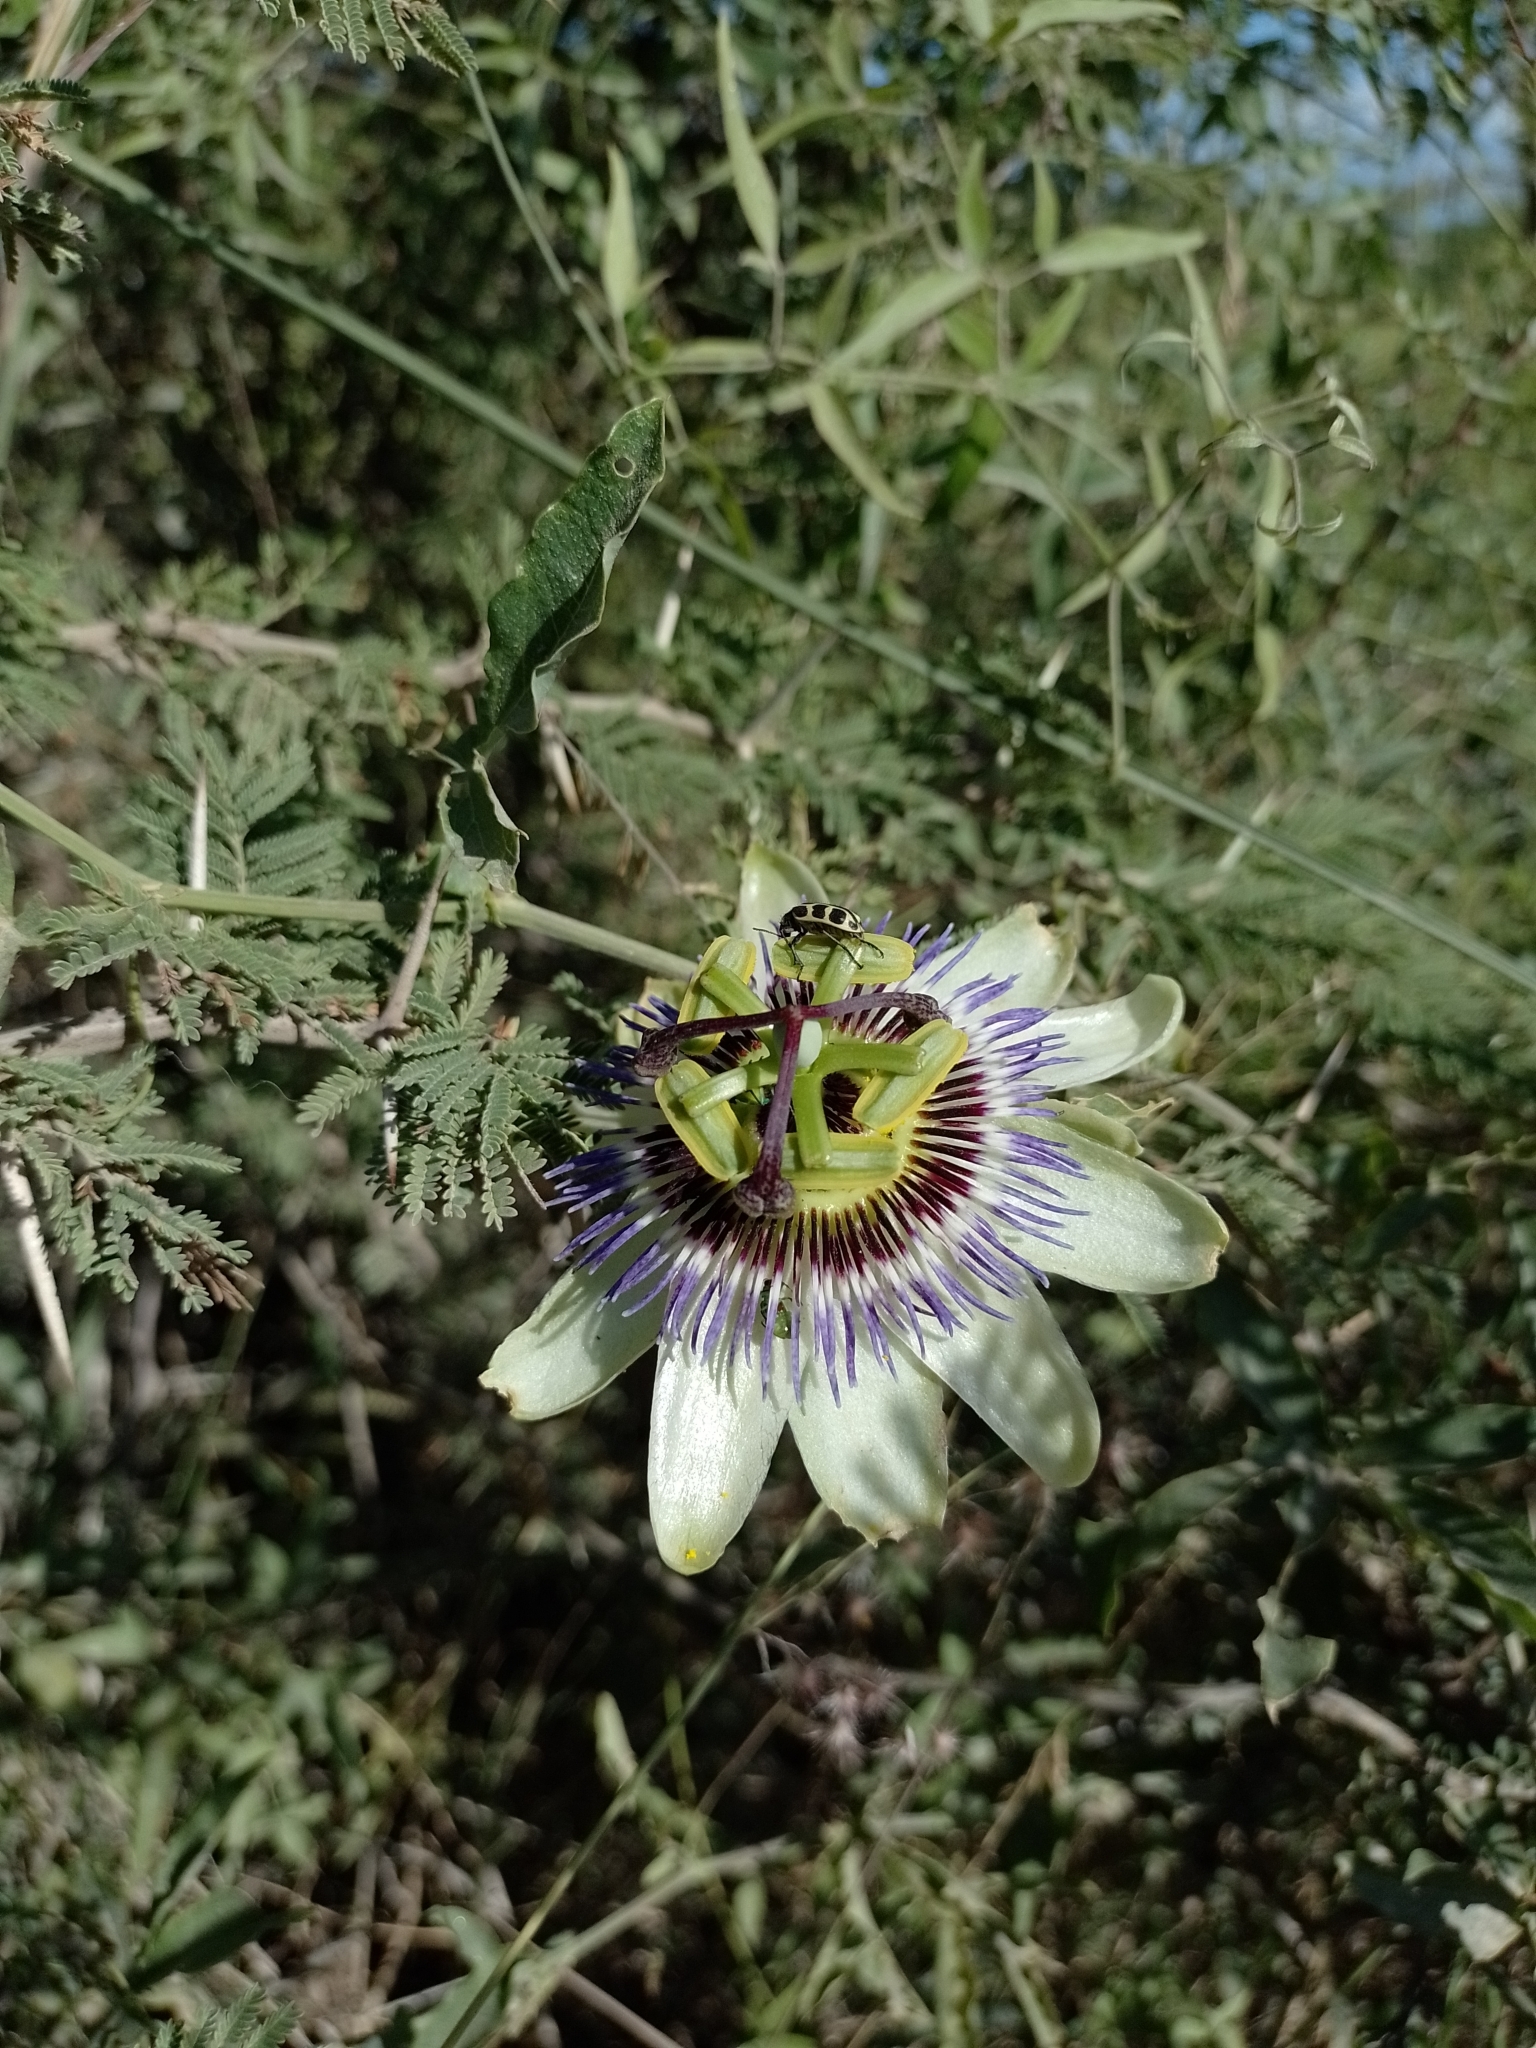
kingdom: Plantae
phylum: Tracheophyta
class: Magnoliopsida
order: Malpighiales
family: Passifloraceae
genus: Passiflora
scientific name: Passiflora caerulea
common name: Blue passionflower
